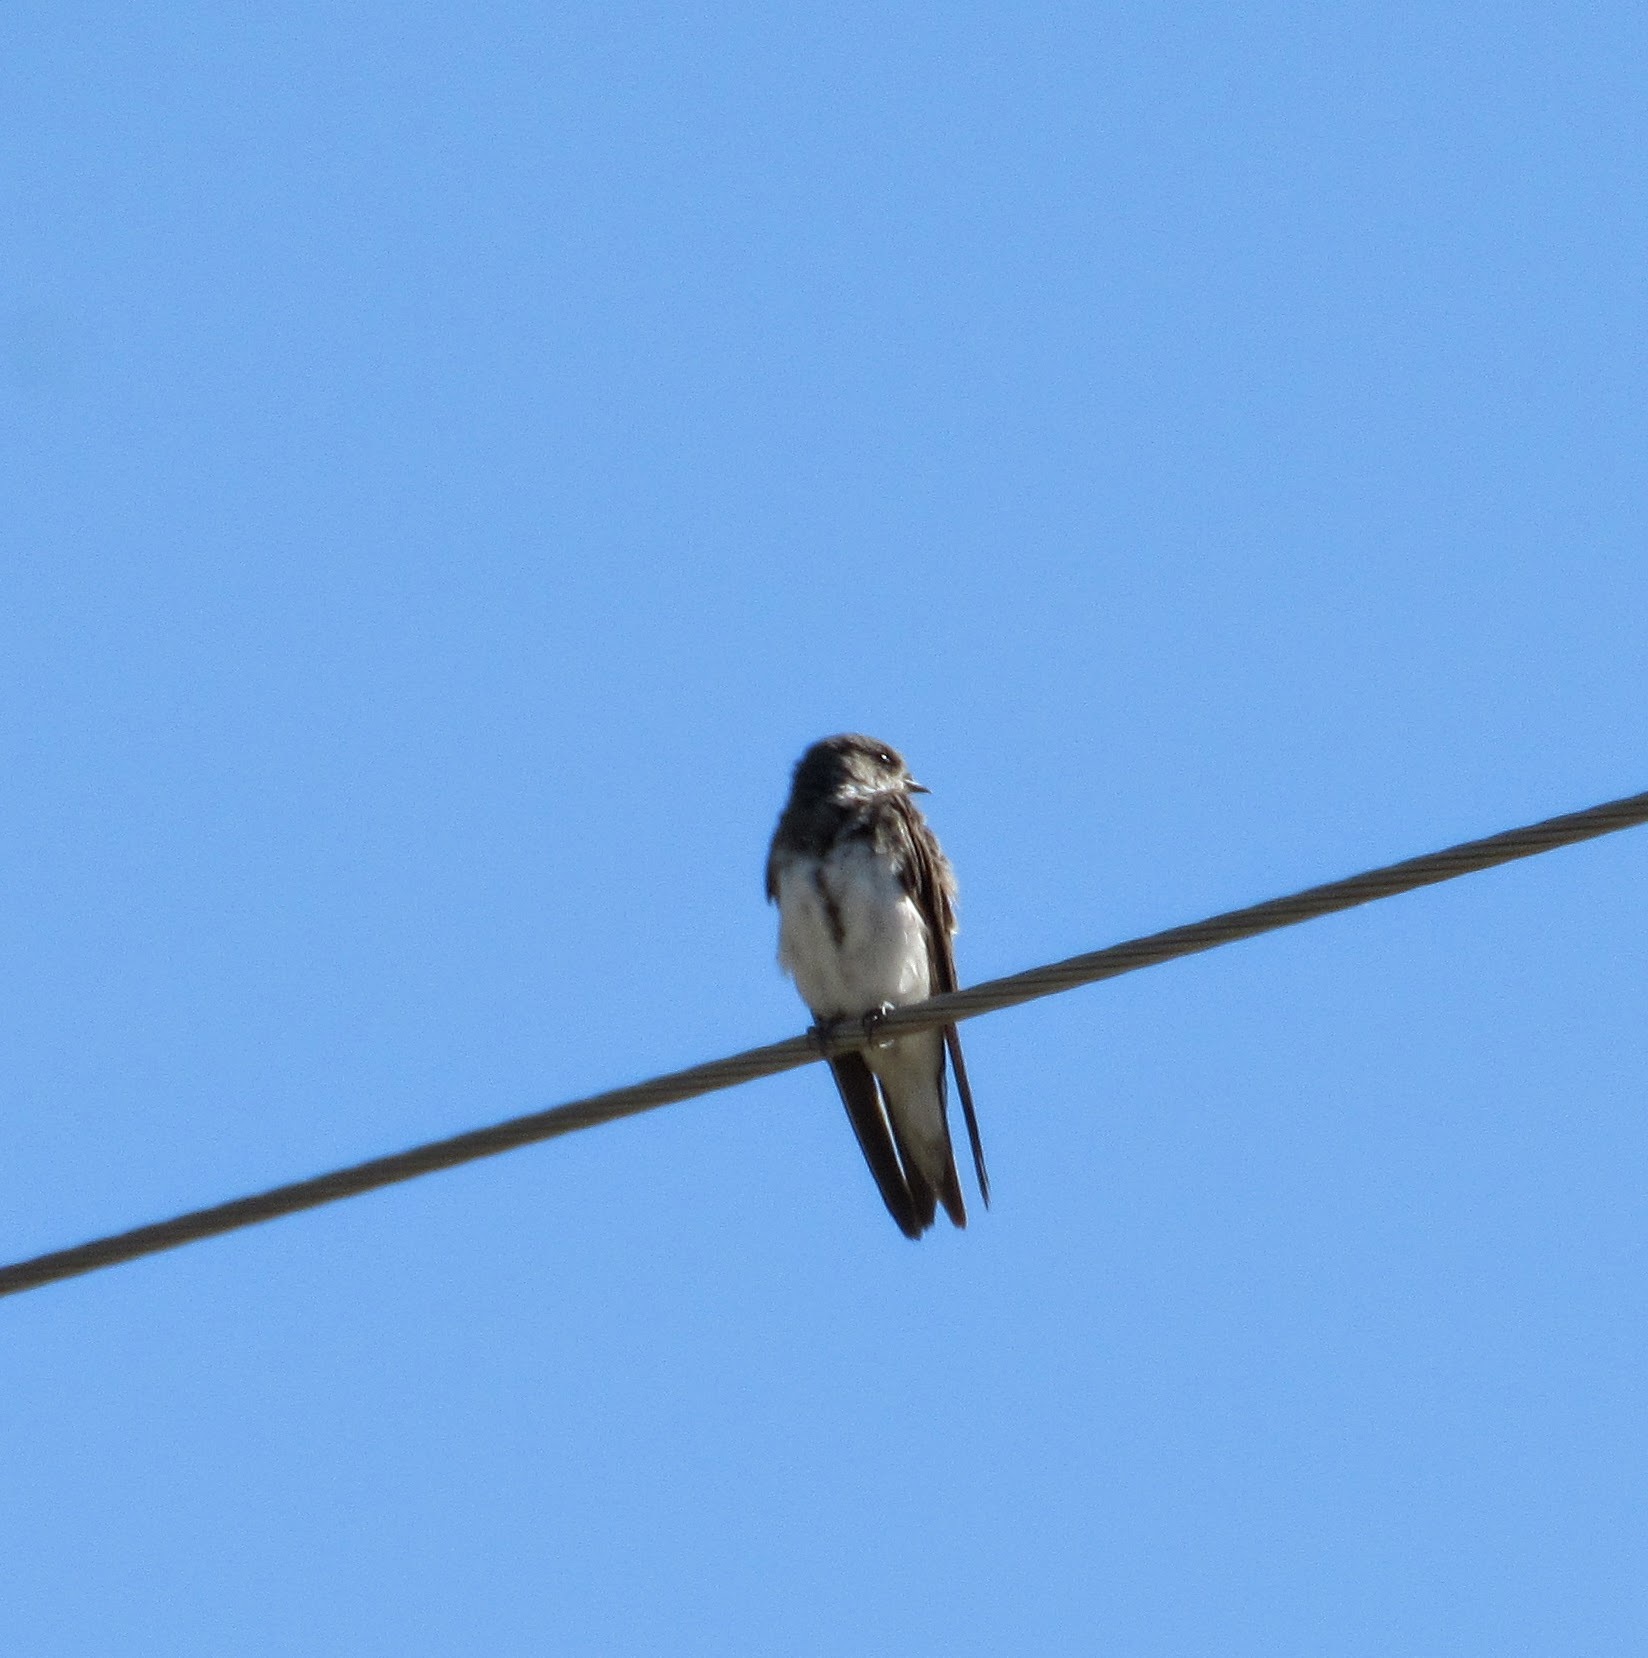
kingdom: Animalia
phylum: Chordata
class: Aves
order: Passeriformes
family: Hirundinidae
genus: Riparia
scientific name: Riparia riparia
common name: Sand martin
